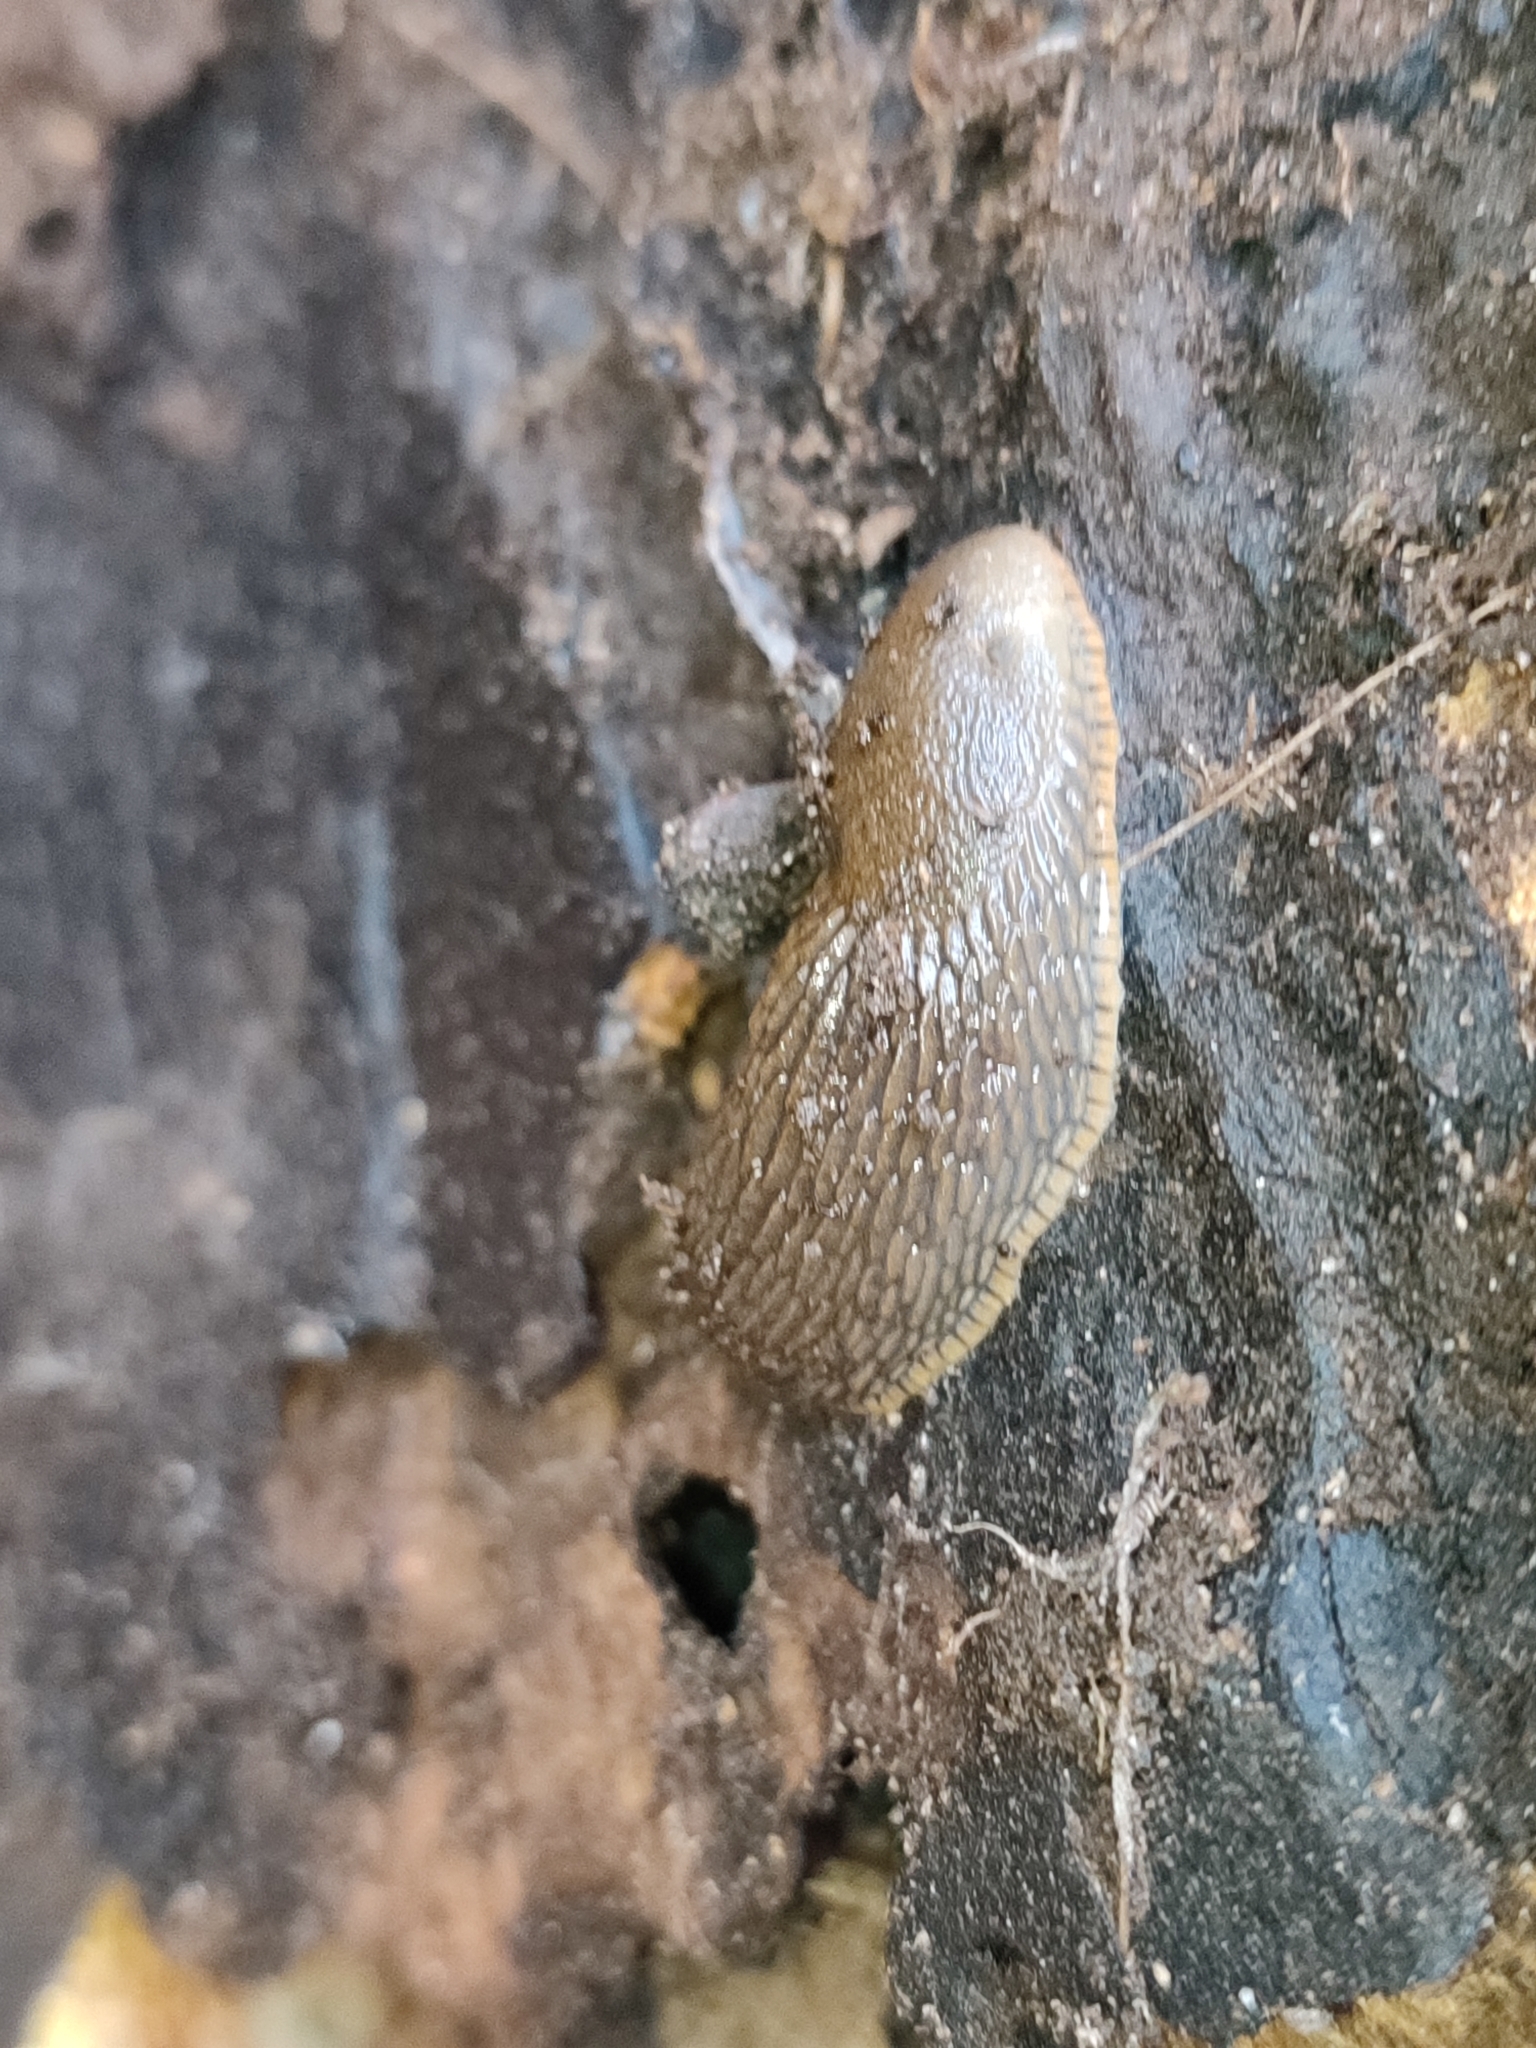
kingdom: Animalia
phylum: Mollusca
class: Gastropoda
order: Stylommatophora
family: Arionidae
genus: Arion
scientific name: Arion vulgaris
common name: Lusitanian slug
